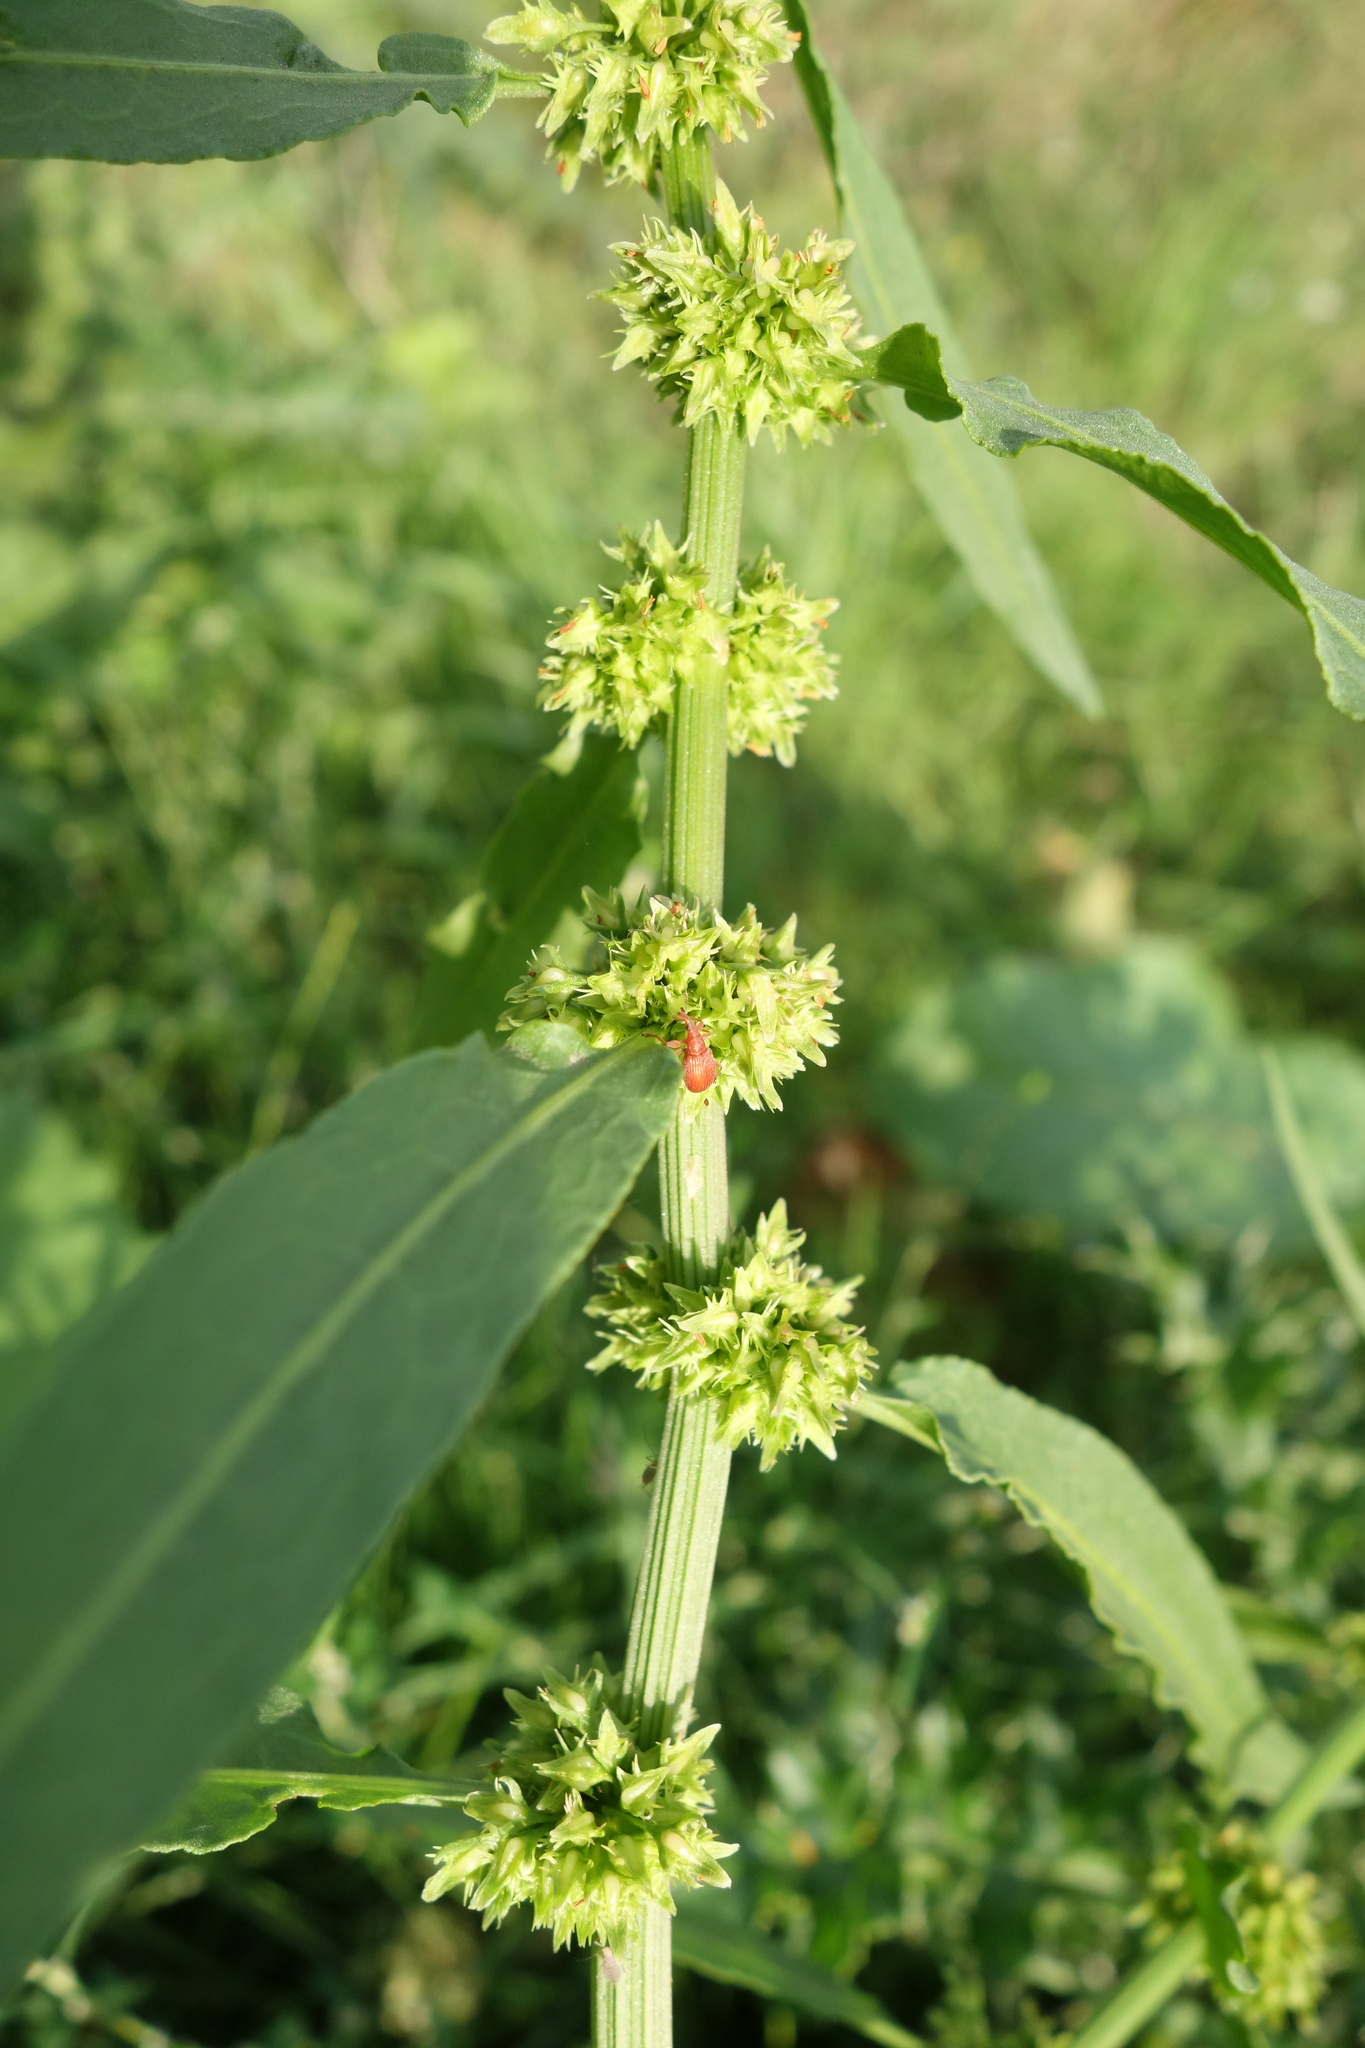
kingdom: Plantae
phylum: Tracheophyta
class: Magnoliopsida
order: Caryophyllales
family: Polygonaceae
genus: Rumex
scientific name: Rumex obtusifolius
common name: Bitter dock
